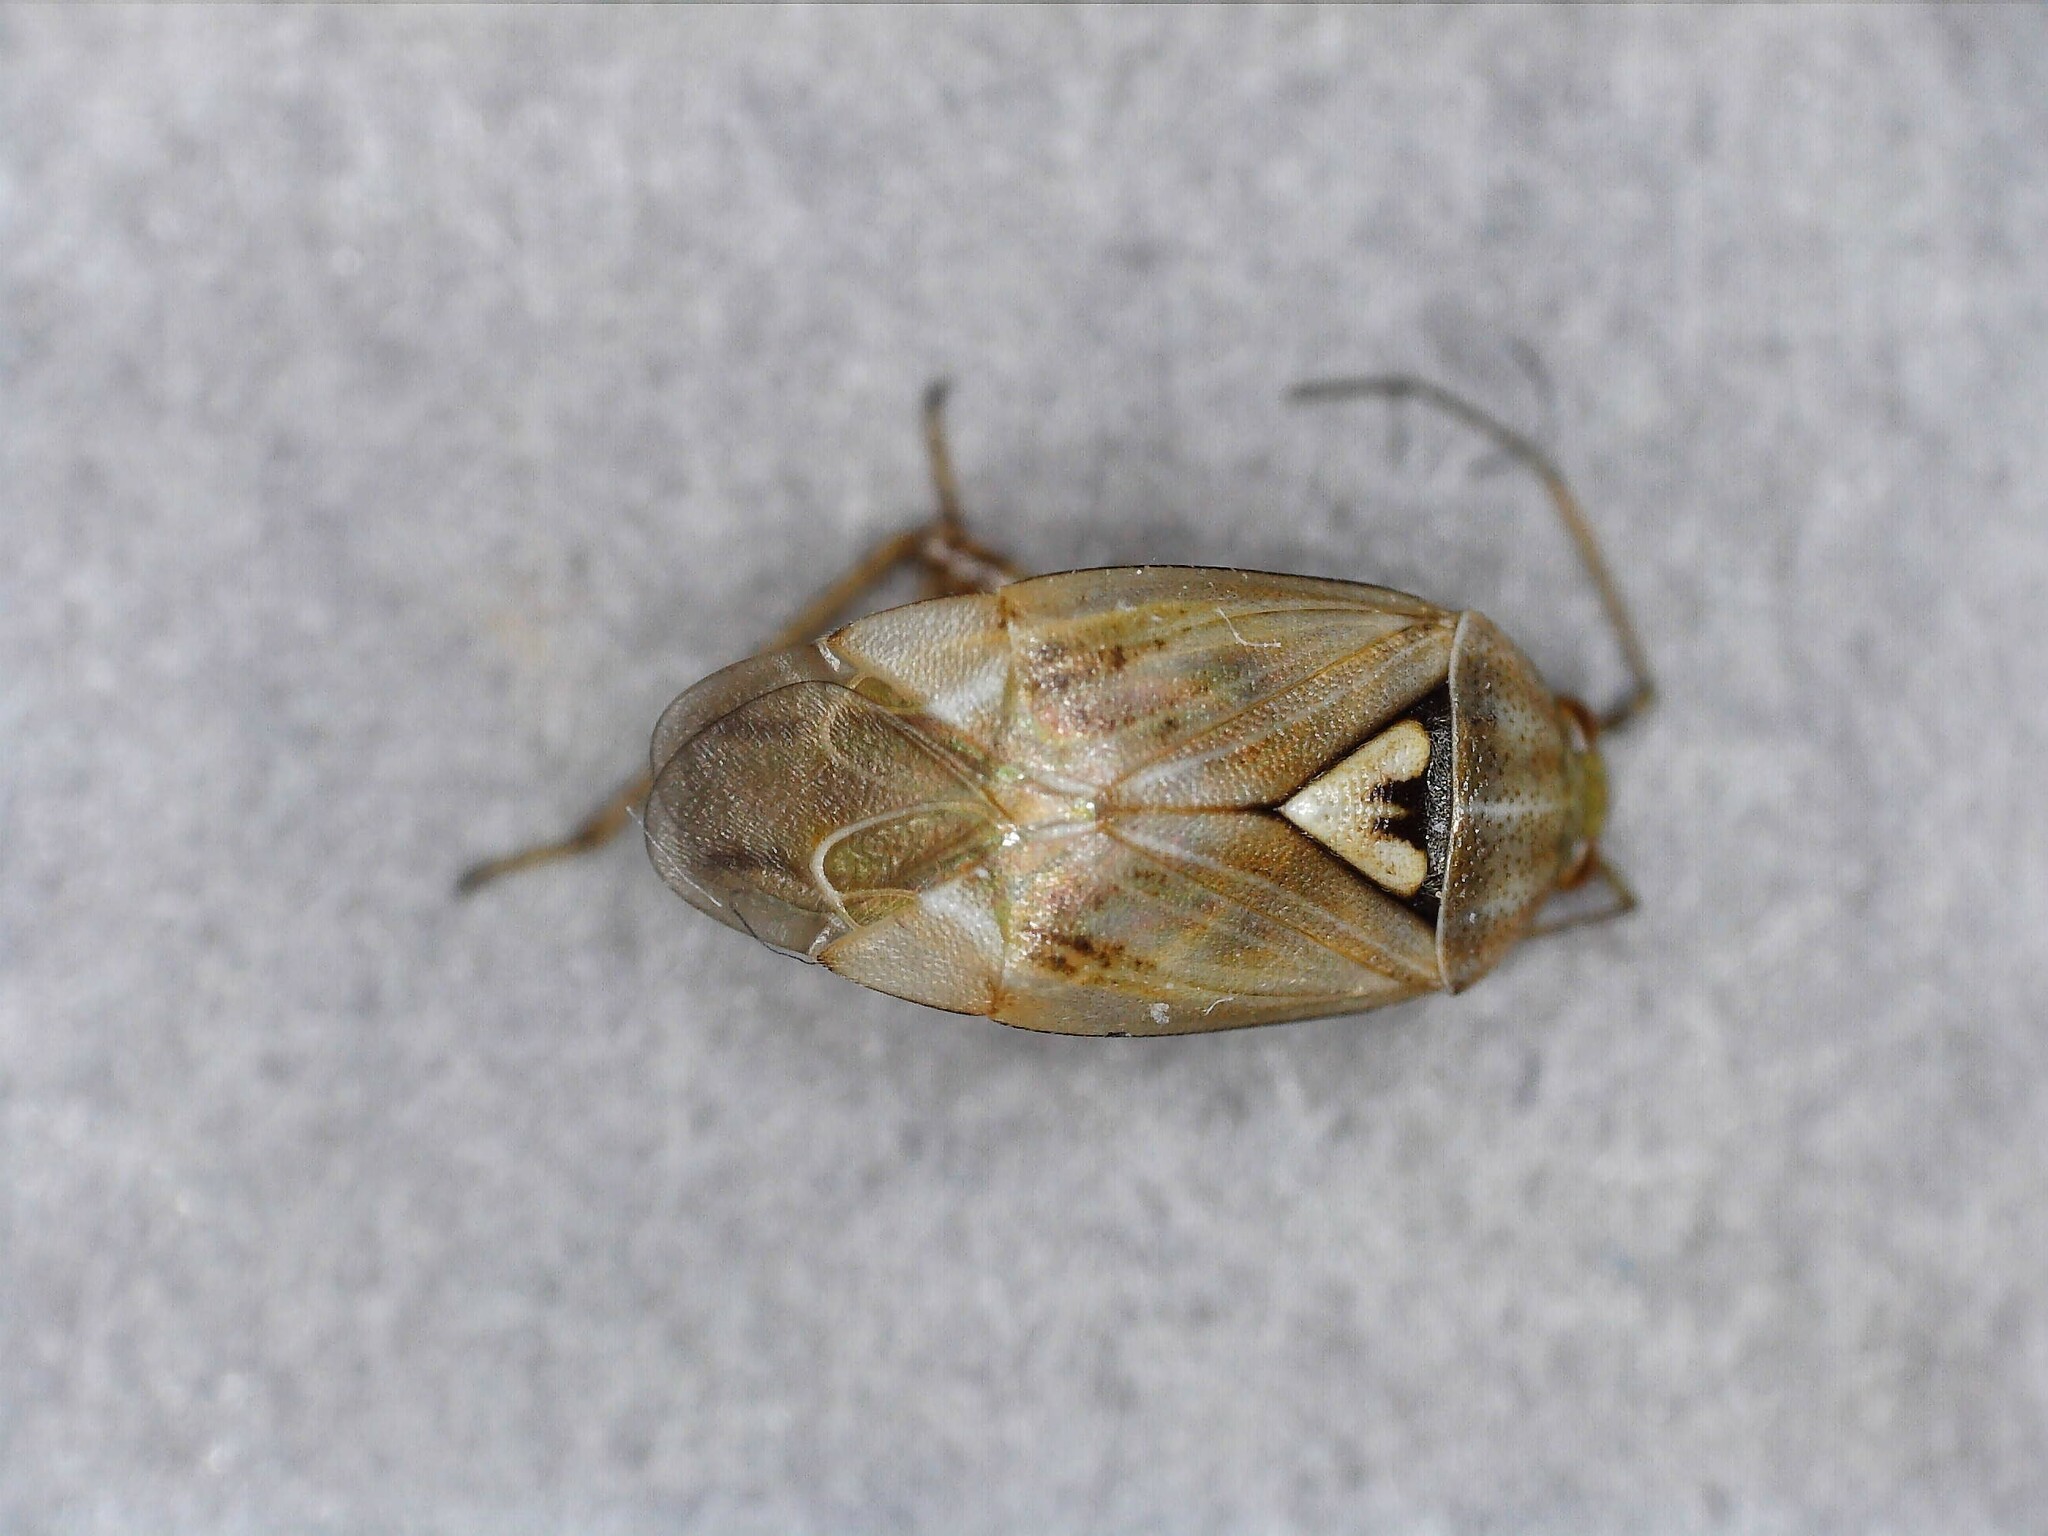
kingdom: Animalia
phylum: Arthropoda
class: Insecta
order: Hemiptera
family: Miridae
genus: Lygus
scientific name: Lygus rugulipennis
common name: European tarnished plant bug
